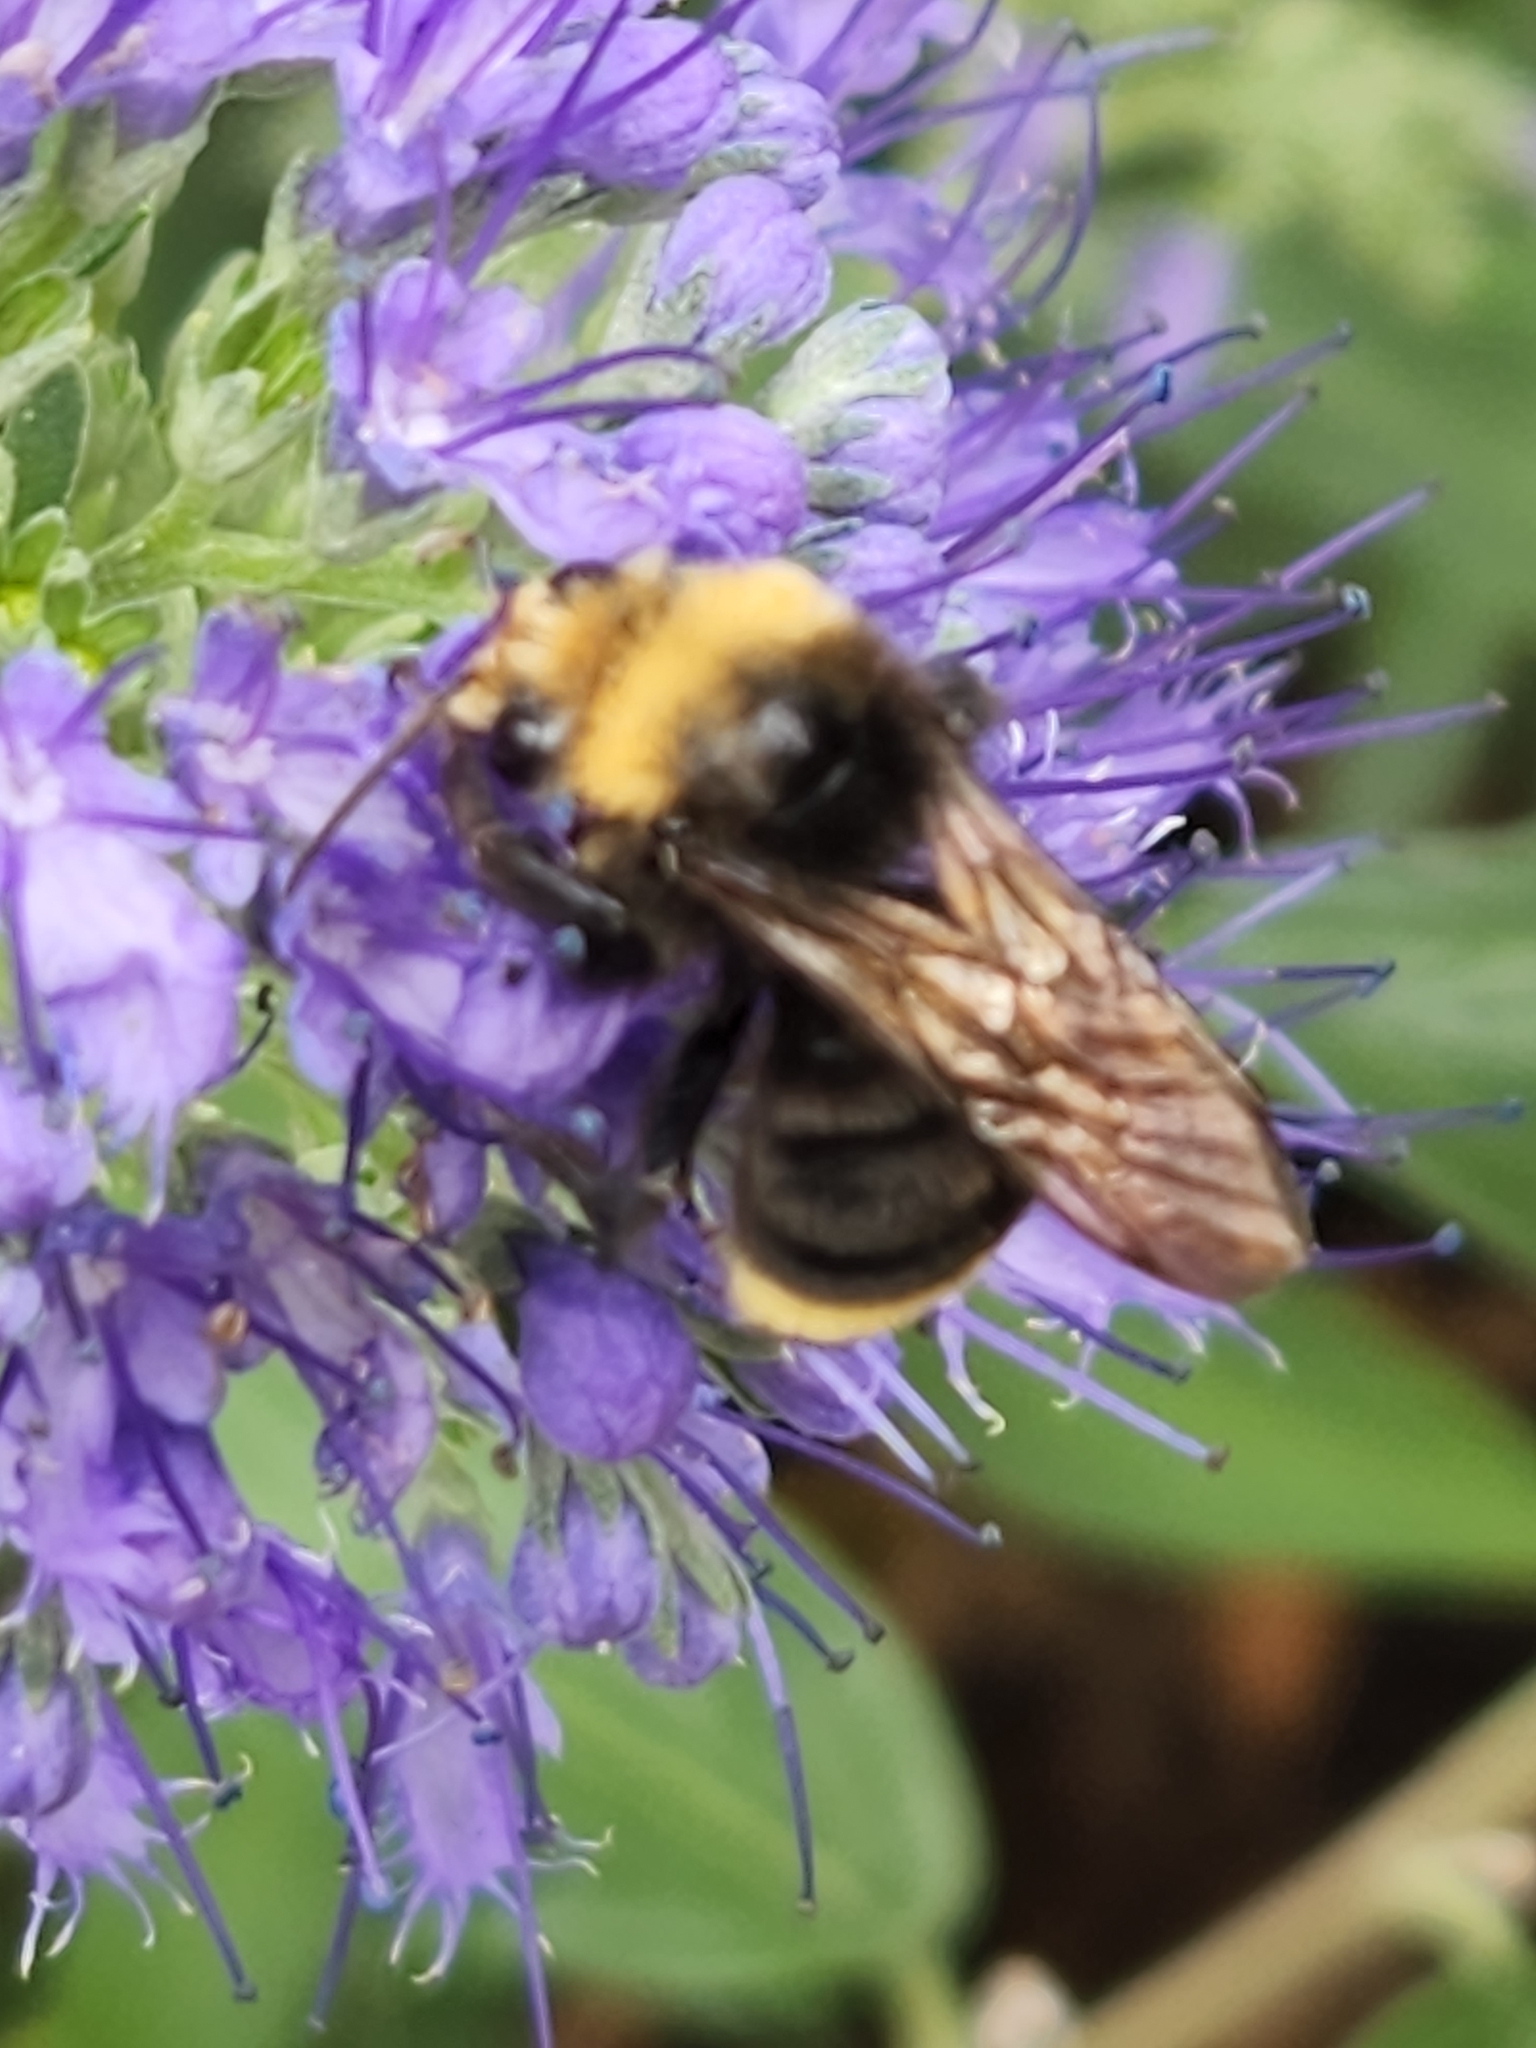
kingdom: Animalia
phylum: Arthropoda
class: Insecta
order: Hymenoptera
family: Apidae
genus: Bombus
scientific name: Bombus vosnesenskii
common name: Vosnesensky bumble bee
